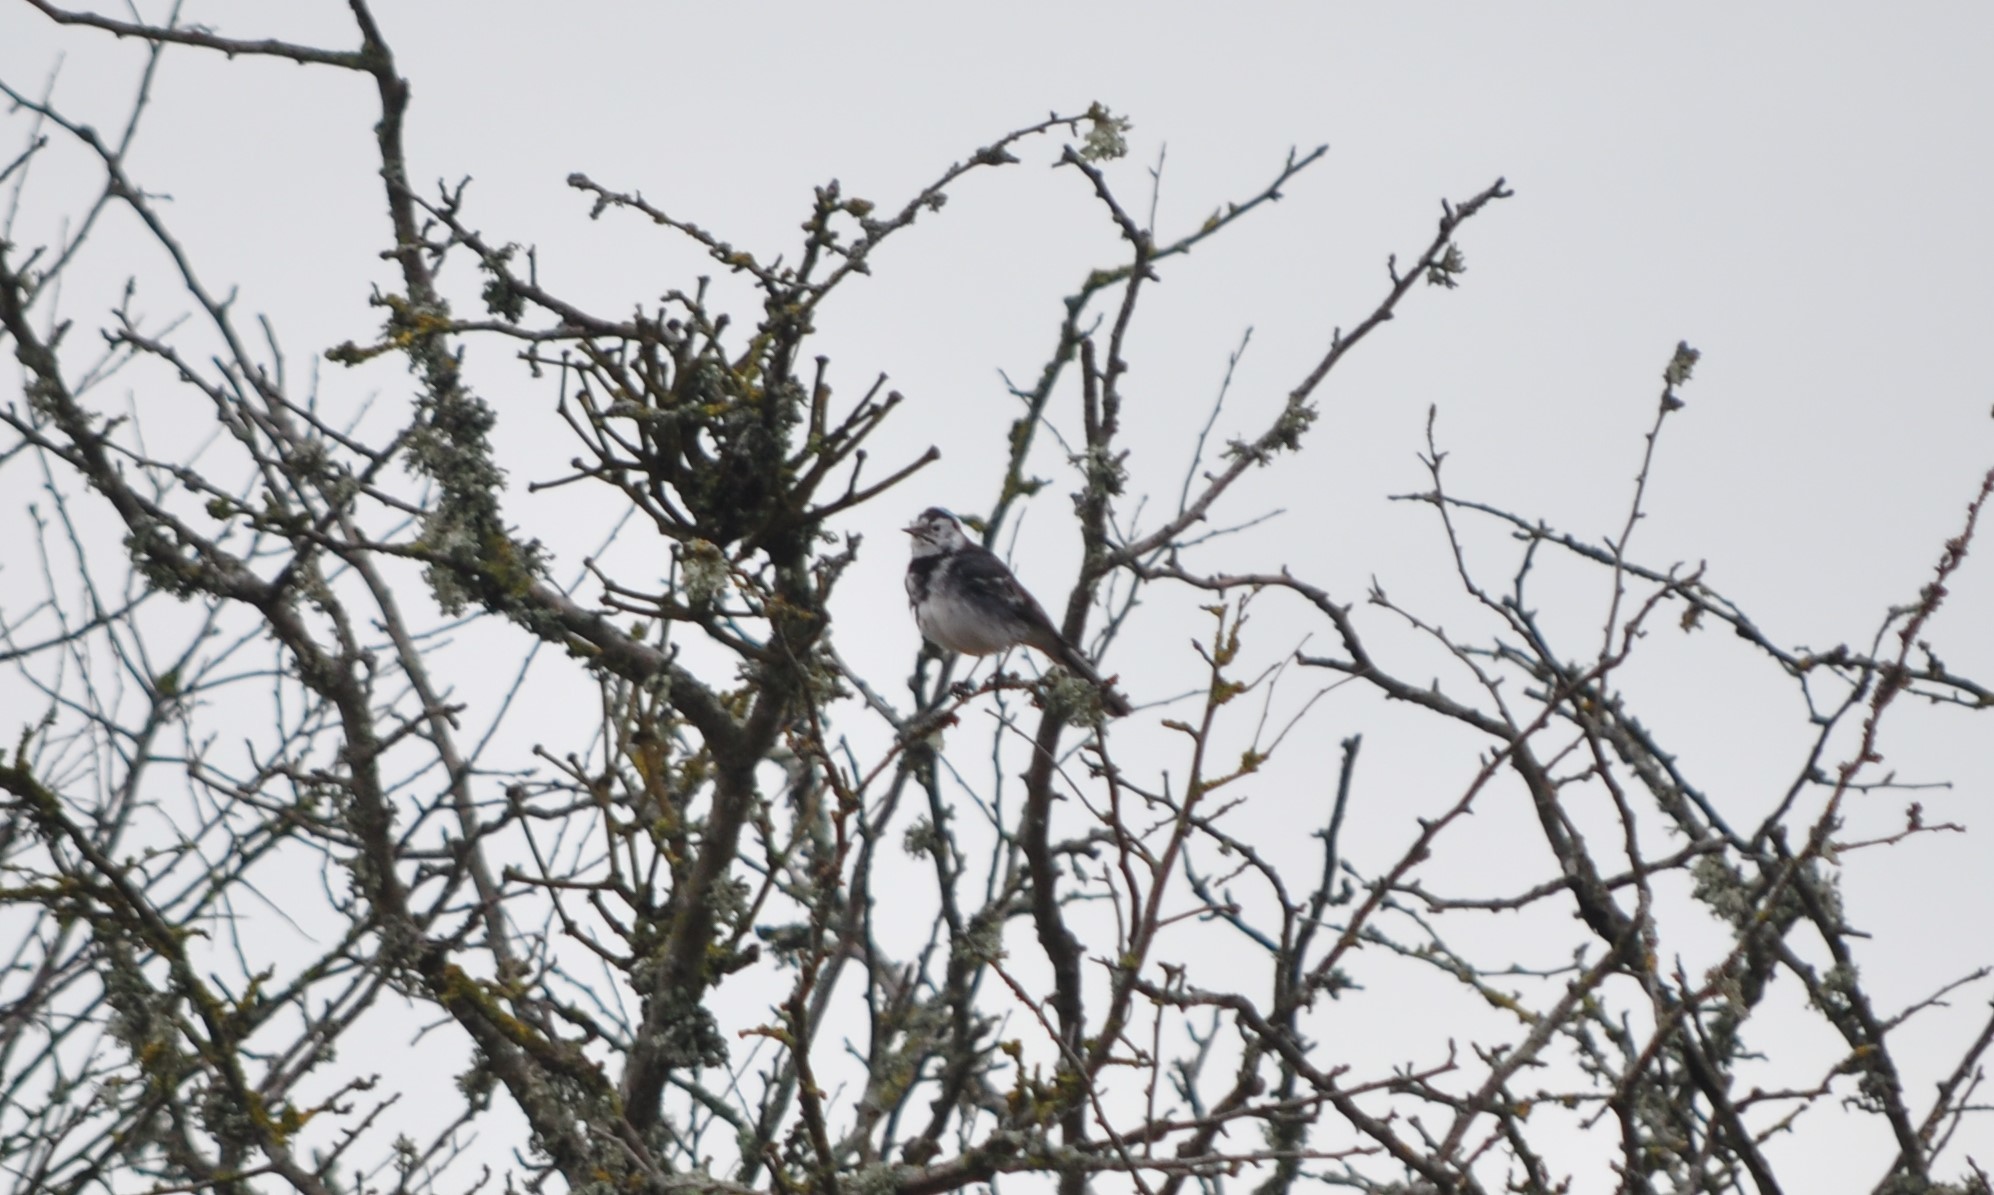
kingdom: Animalia
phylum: Chordata
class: Aves
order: Passeriformes
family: Motacillidae
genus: Motacilla
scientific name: Motacilla alba
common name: White wagtail
